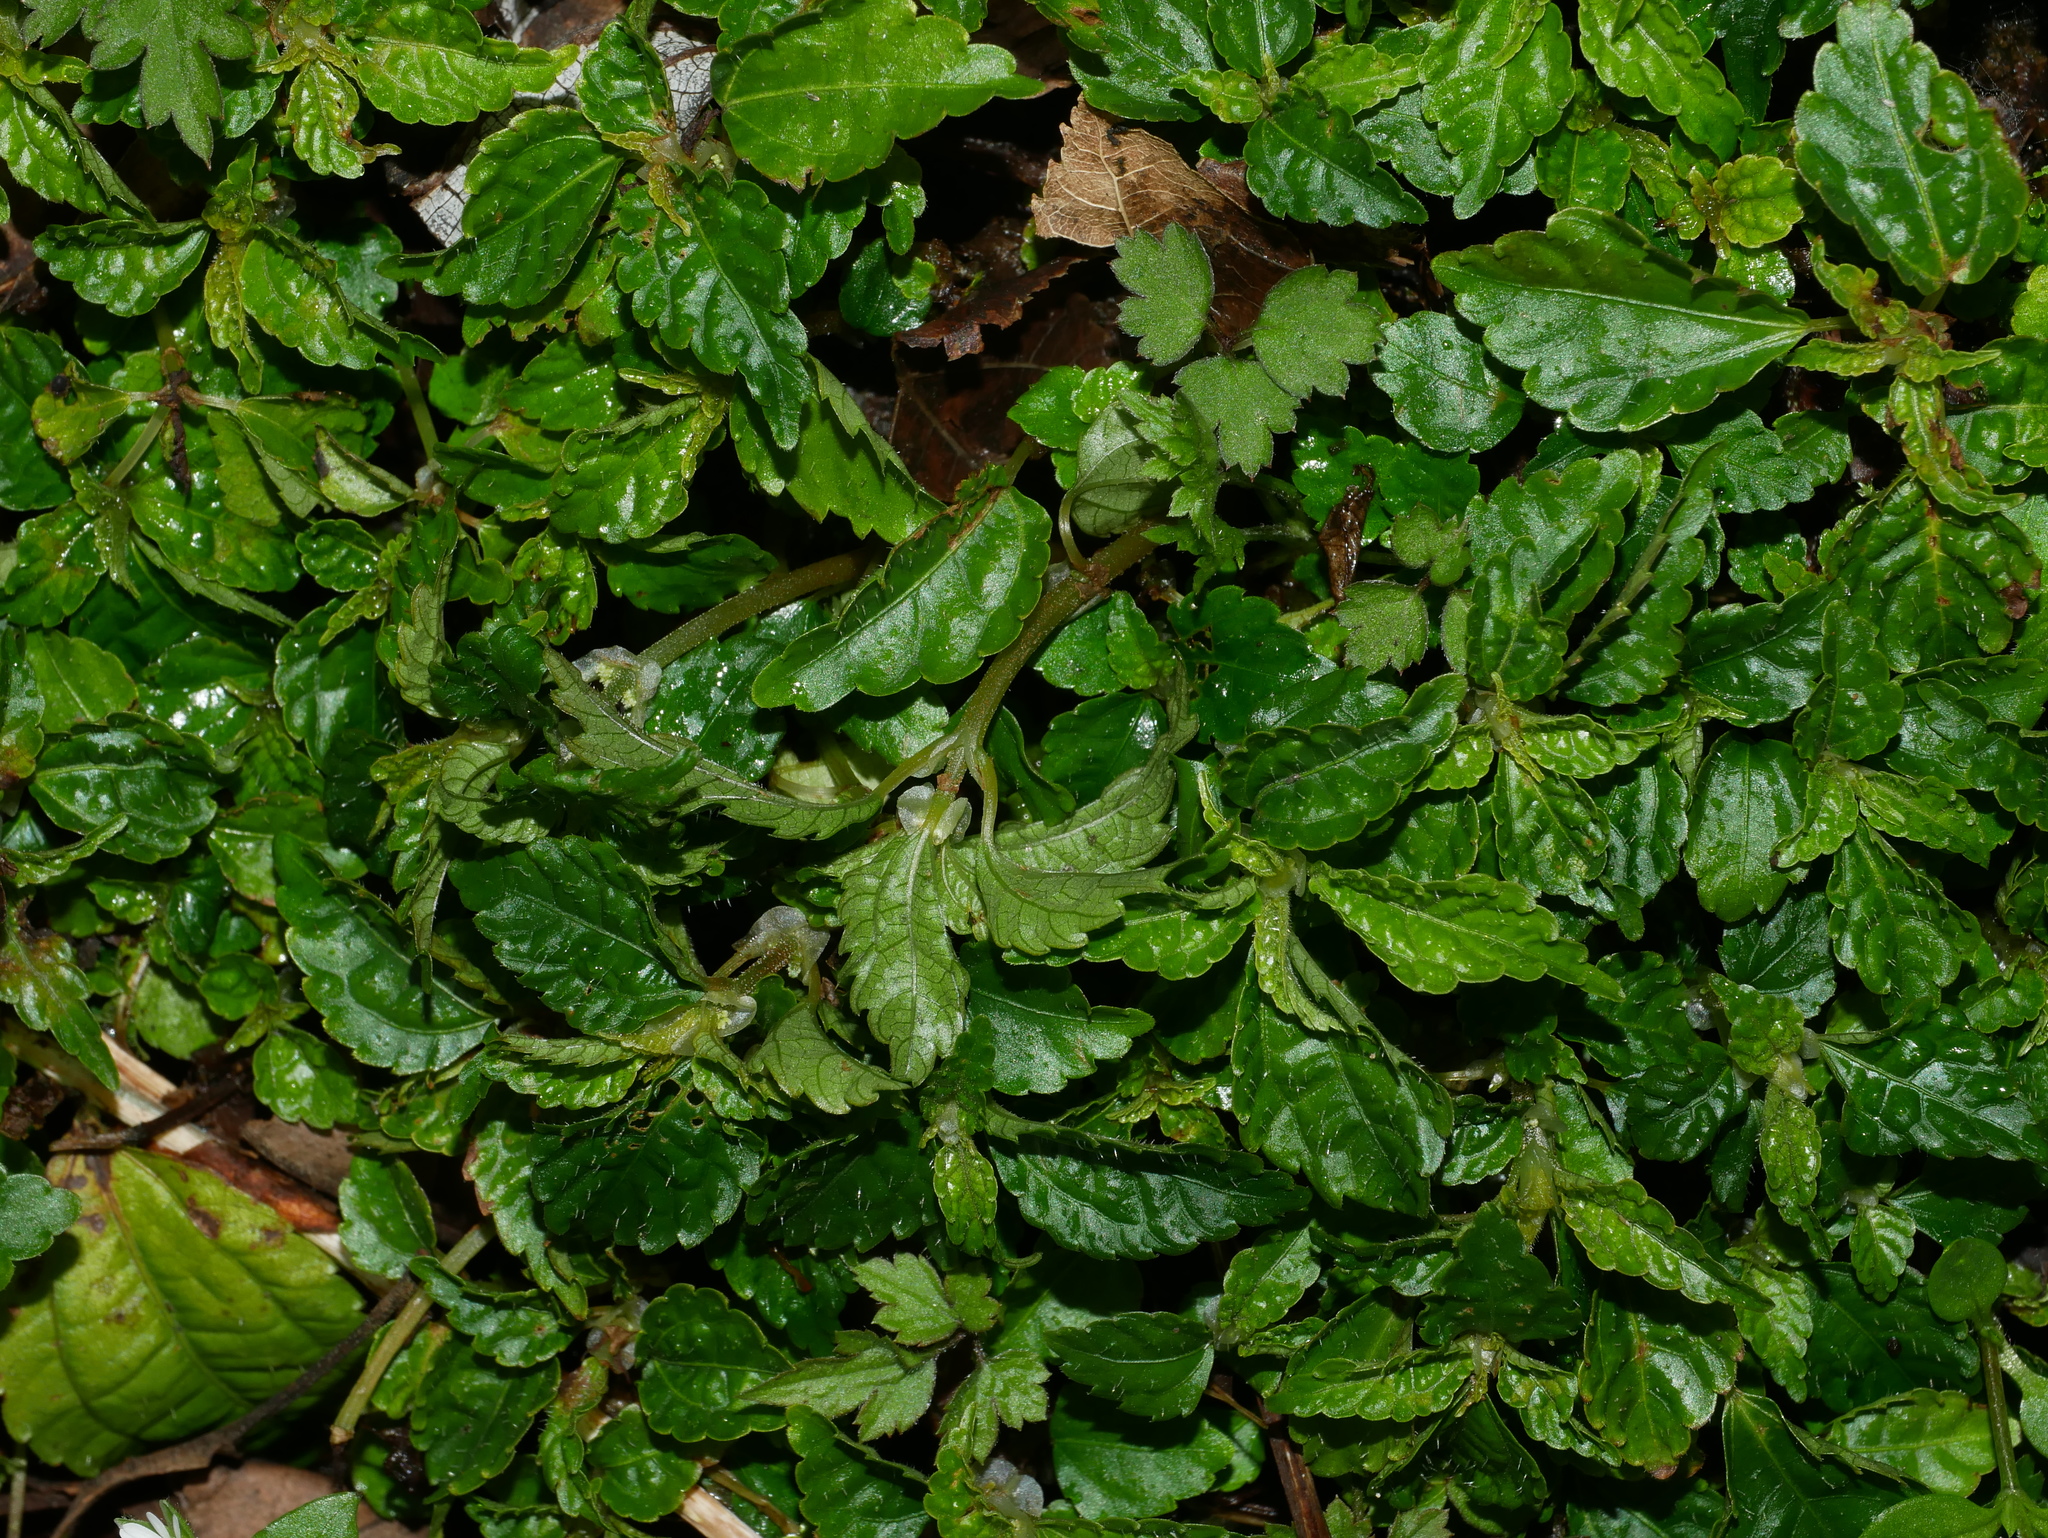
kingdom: Plantae
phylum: Tracheophyta
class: Magnoliopsida
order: Rosales
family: Urticaceae
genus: Pilea
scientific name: Pilea brevicornuta
